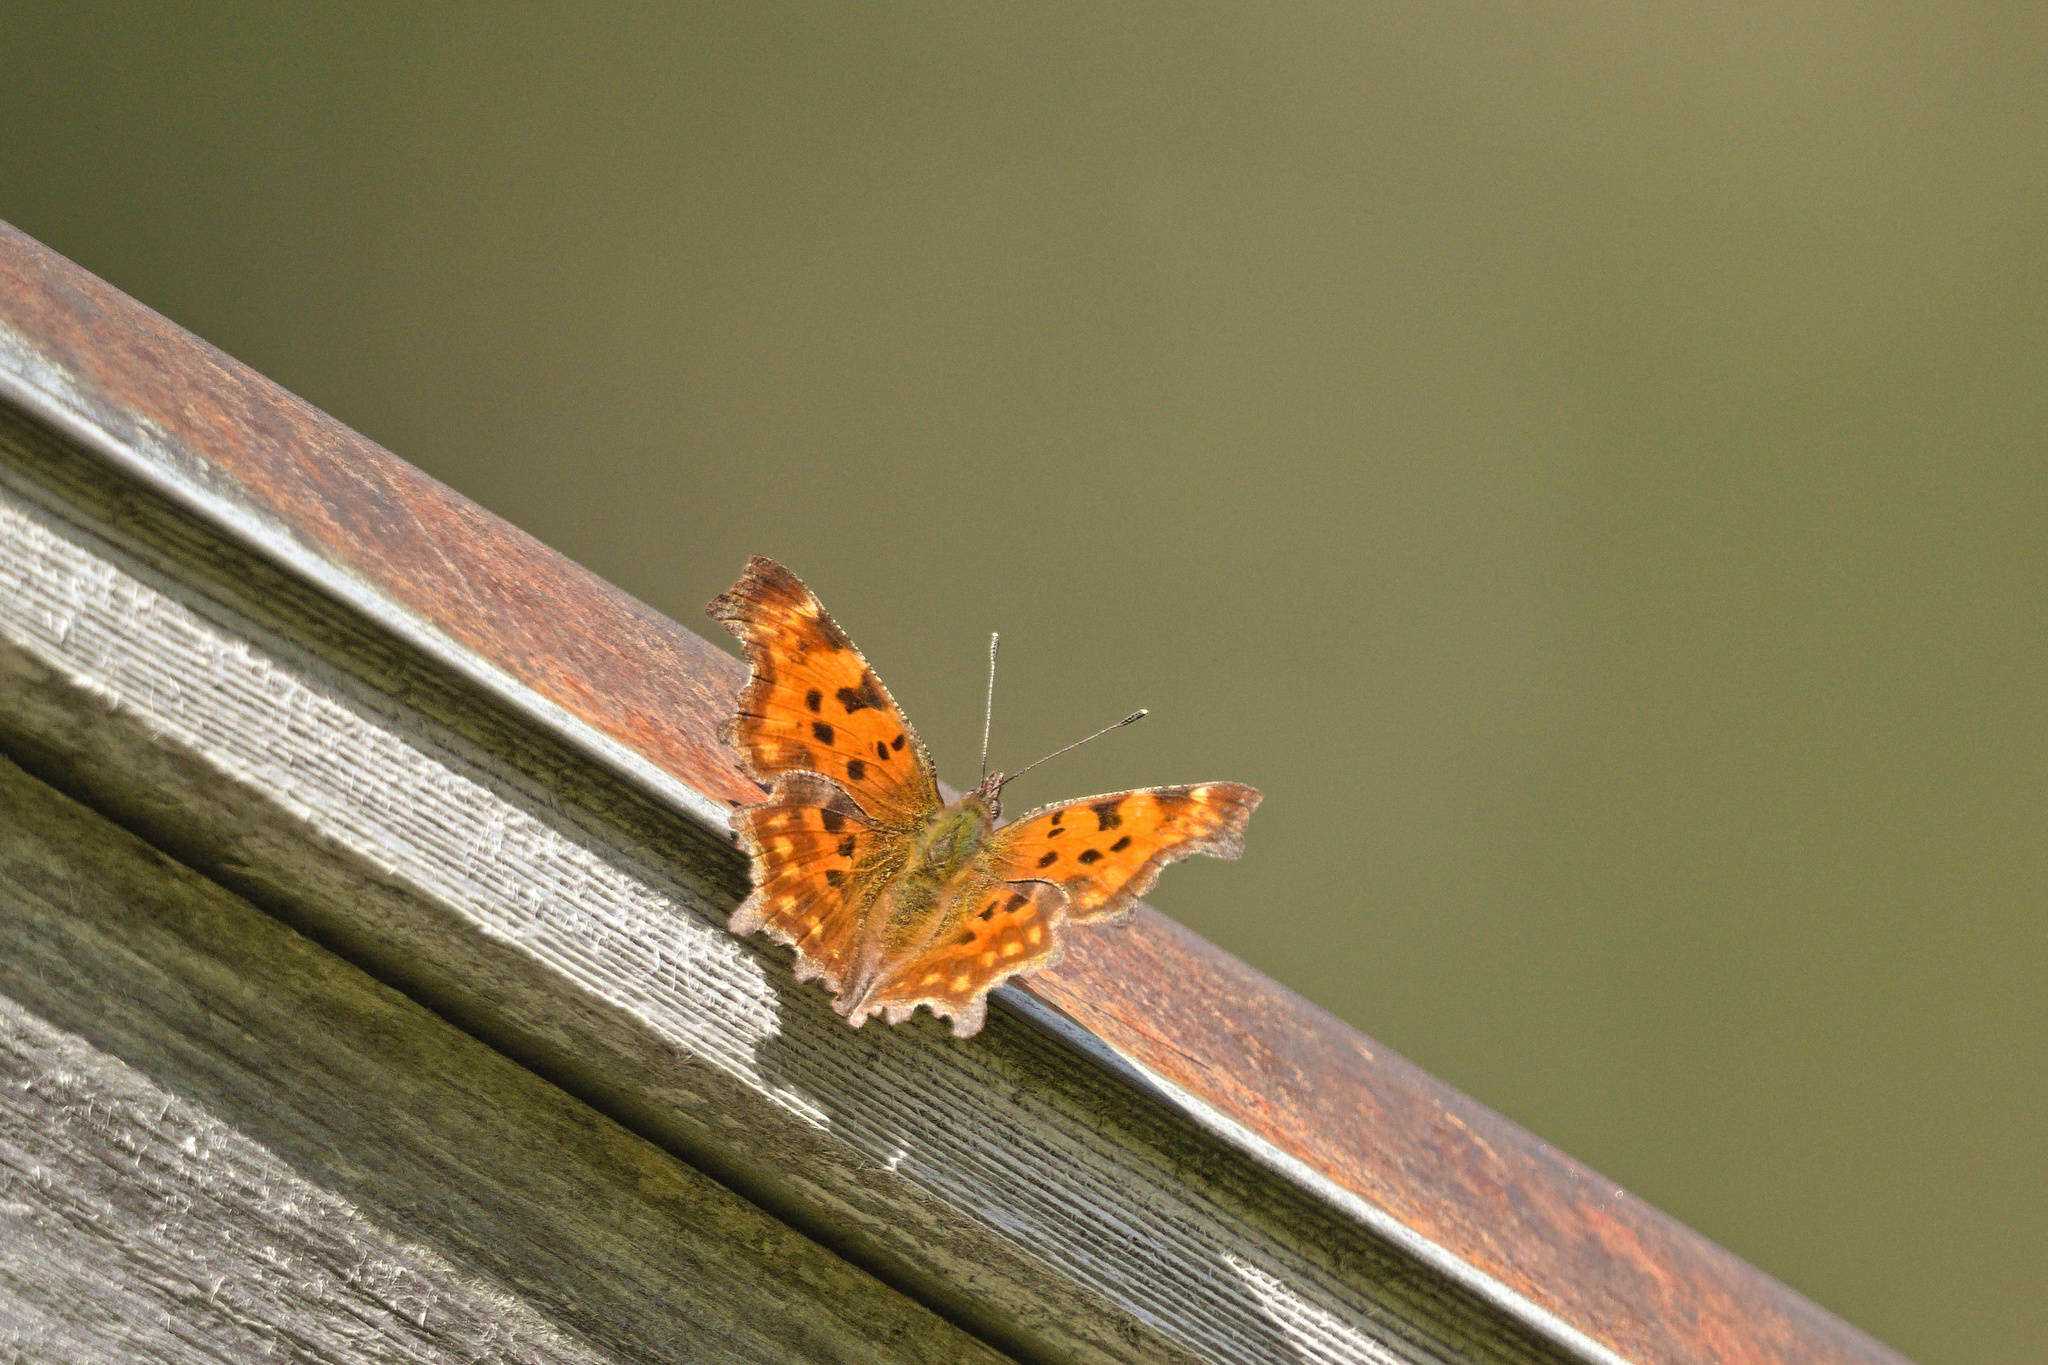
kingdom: Animalia
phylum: Arthropoda
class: Insecta
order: Lepidoptera
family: Nymphalidae
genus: Polygonia
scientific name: Polygonia c-album
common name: Comma
